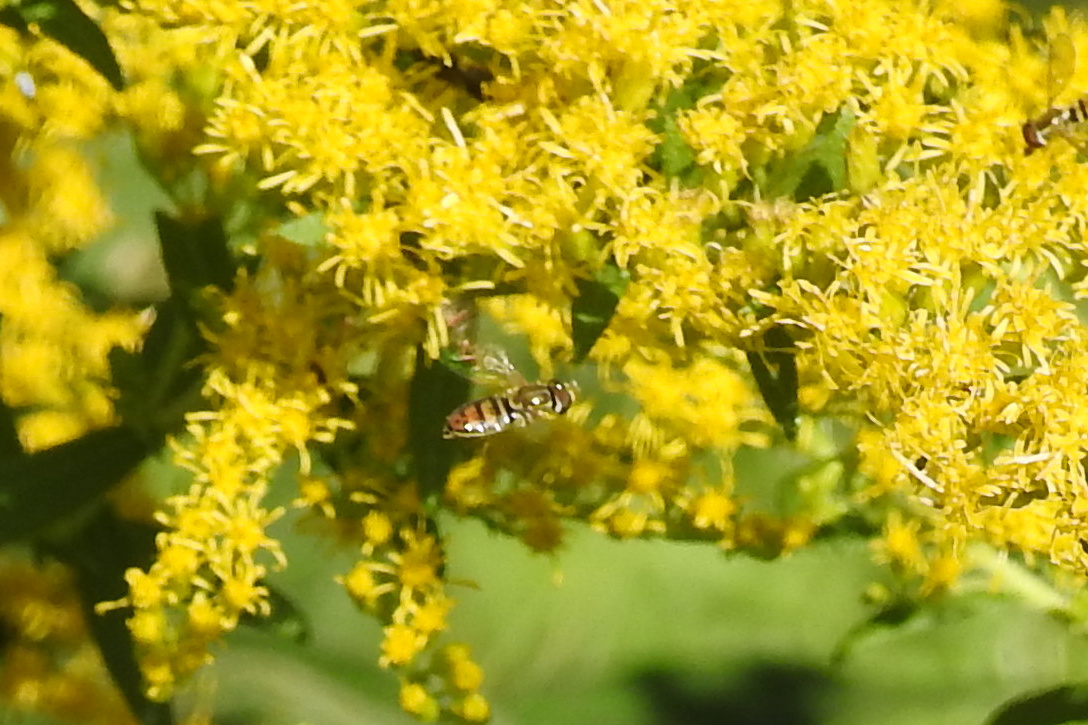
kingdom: Animalia
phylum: Arthropoda
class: Insecta
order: Diptera
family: Syrphidae
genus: Toxomerus
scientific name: Toxomerus marginatus
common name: Syrphid fly
